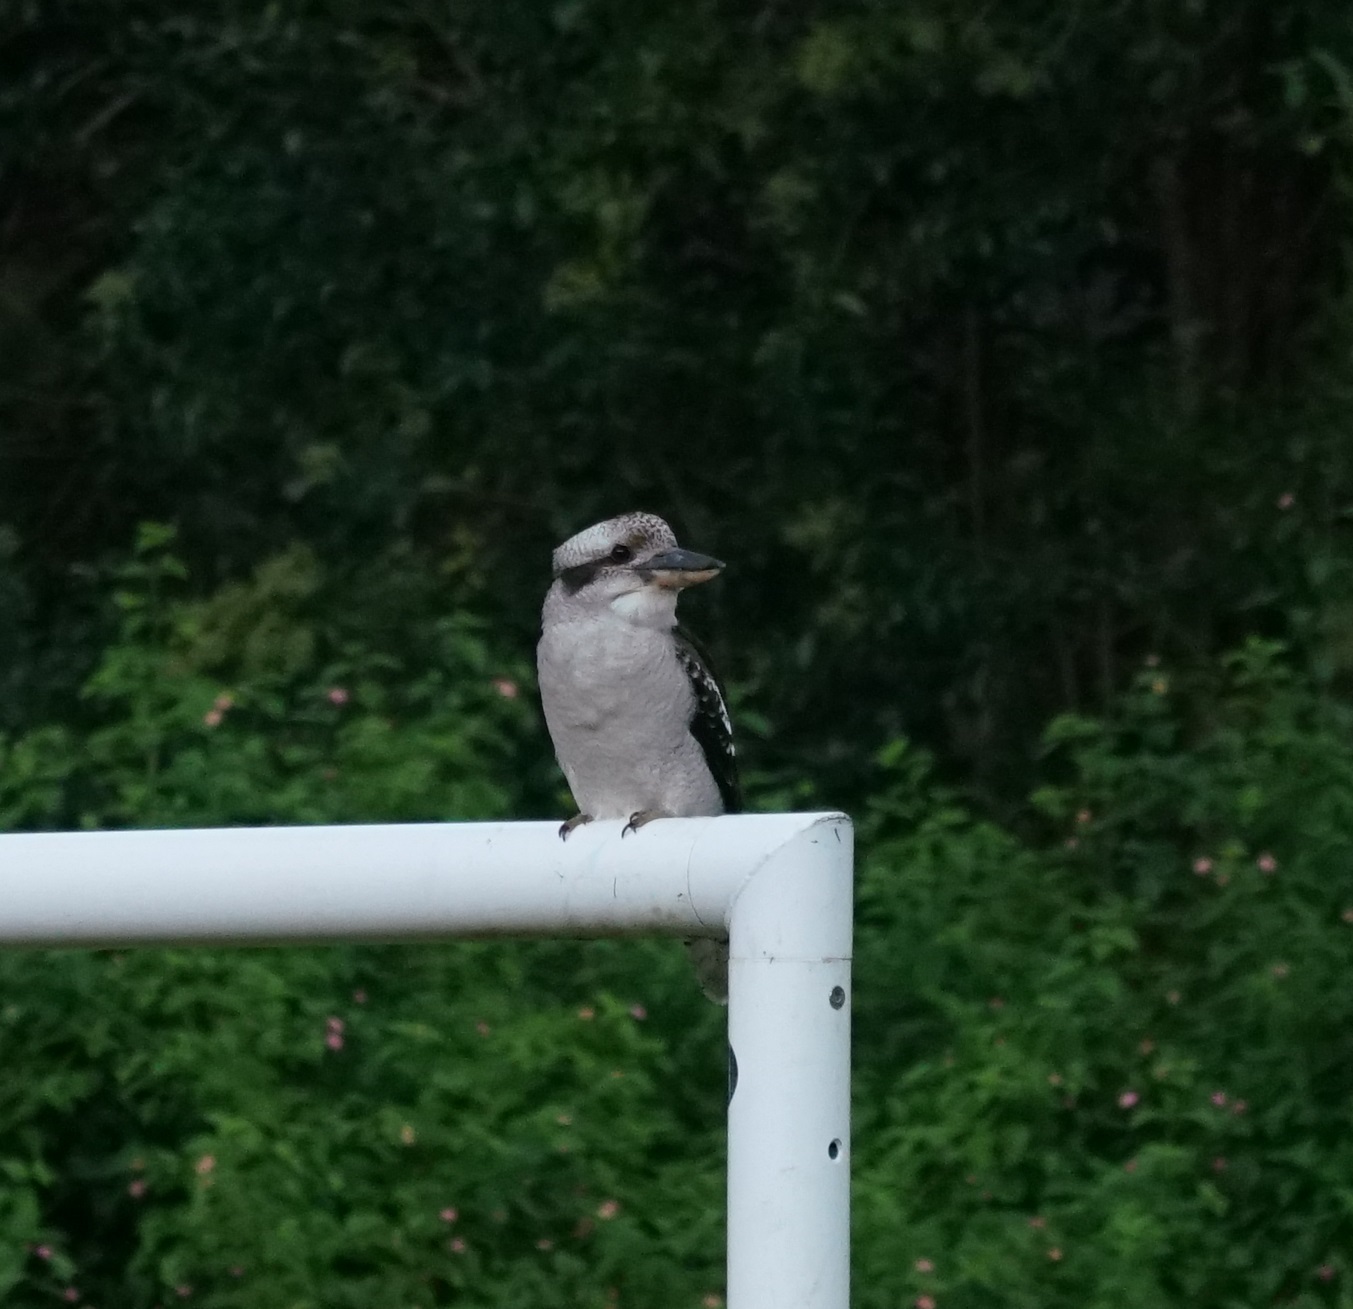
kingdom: Animalia
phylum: Chordata
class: Aves
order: Coraciiformes
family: Alcedinidae
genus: Dacelo
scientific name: Dacelo novaeguineae
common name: Laughing kookaburra
